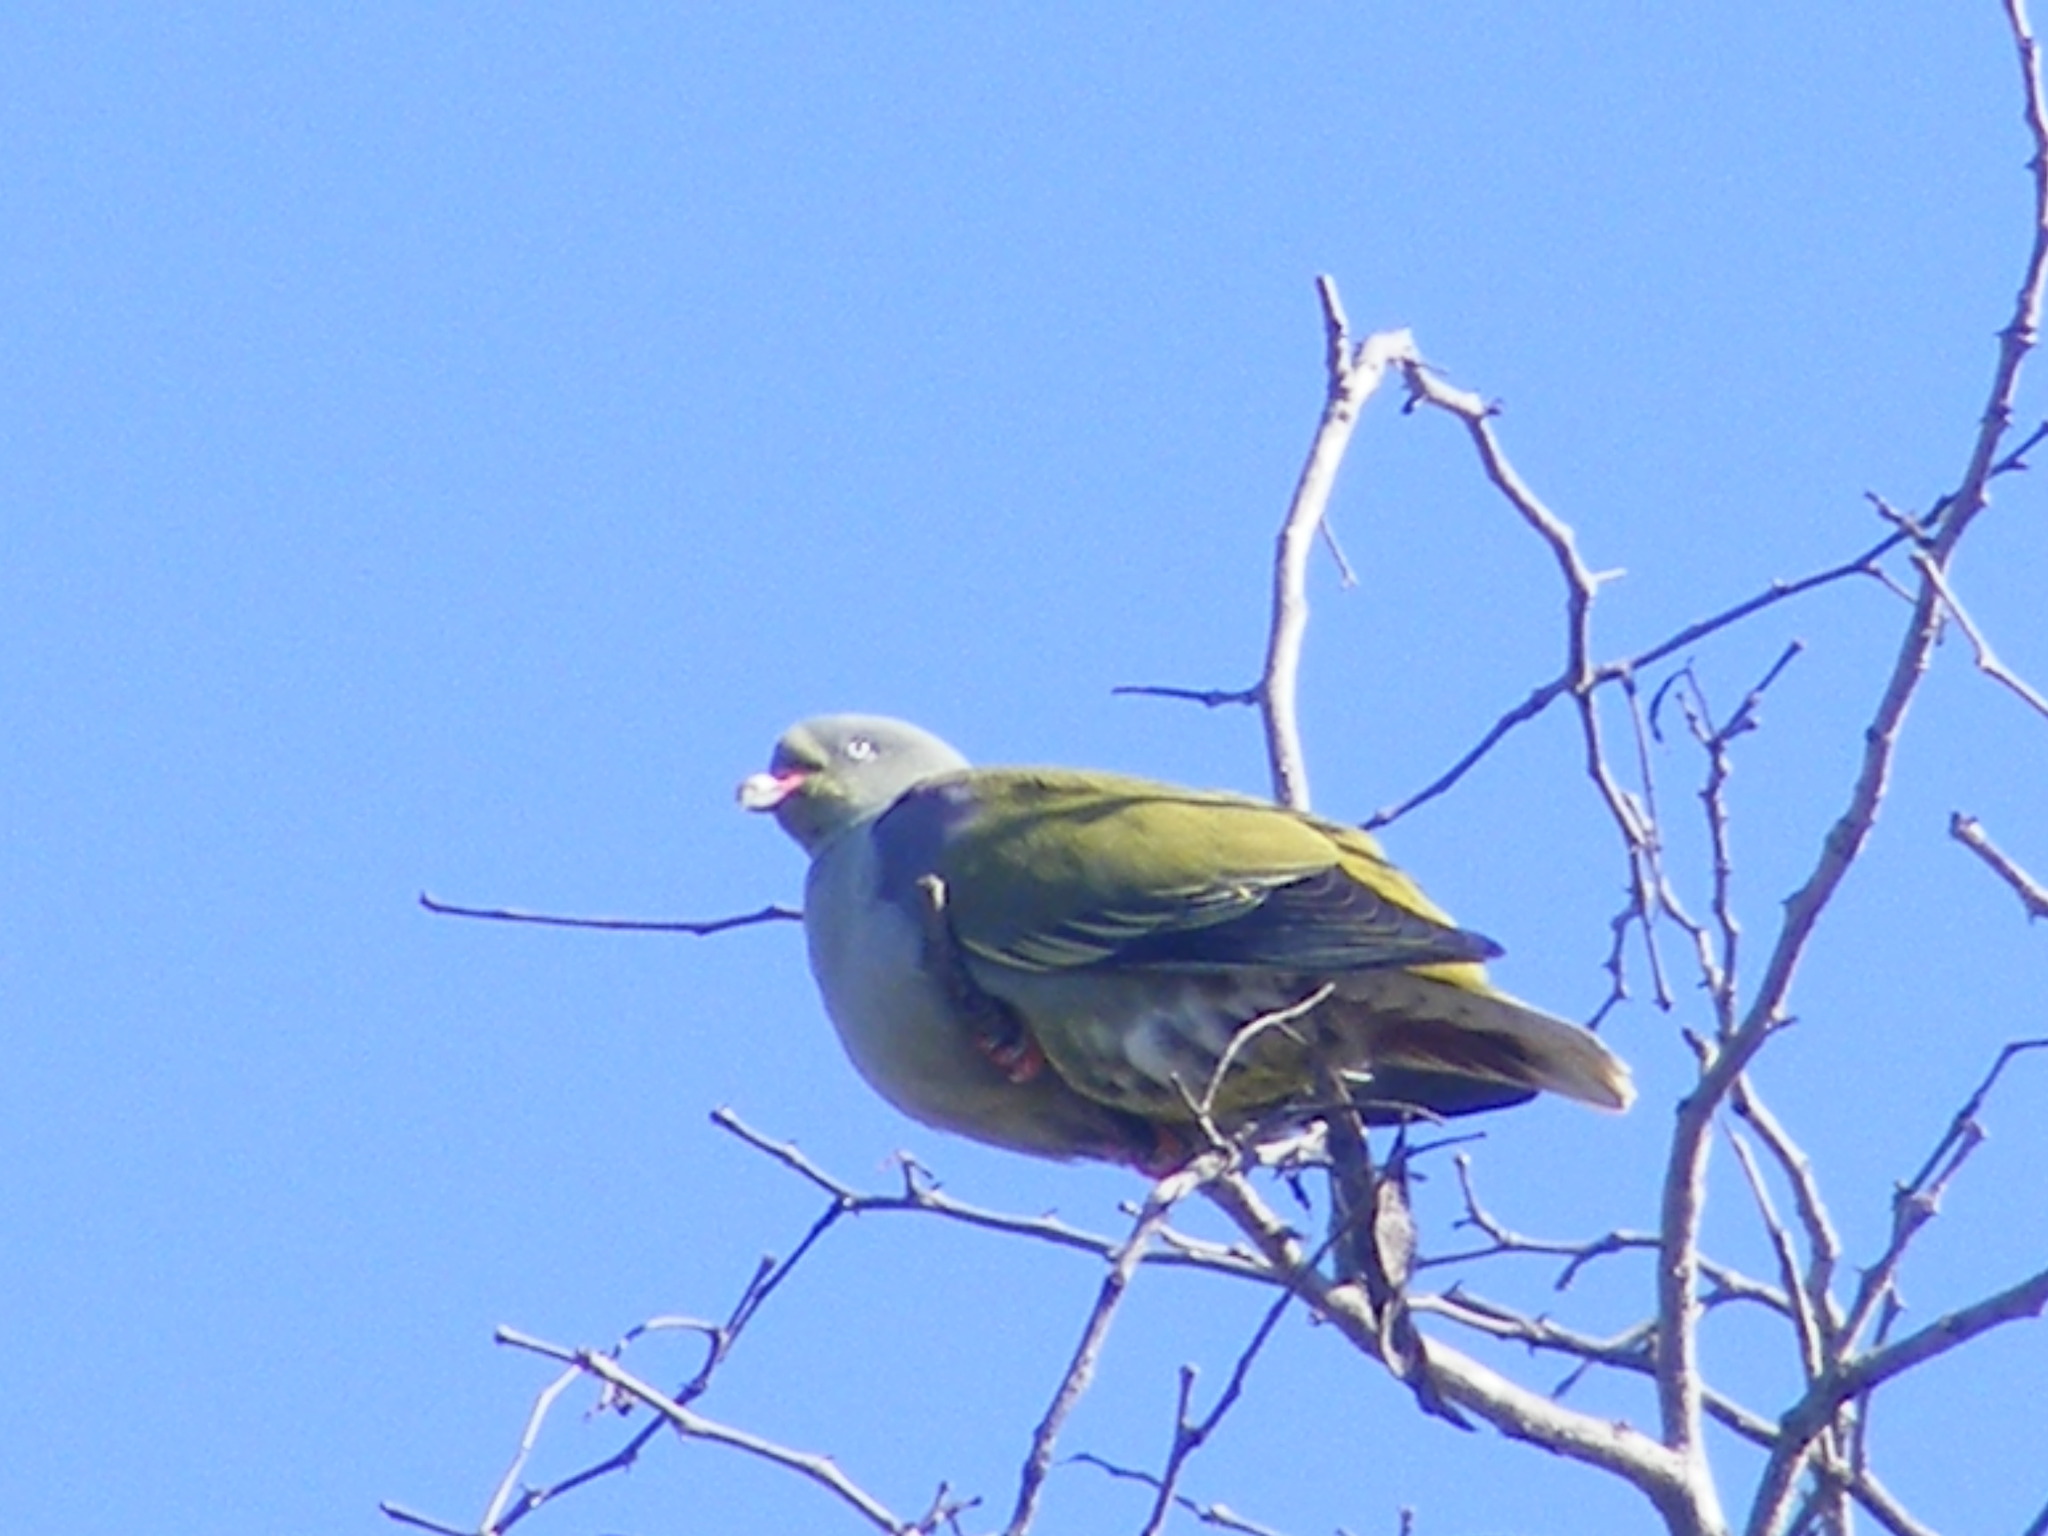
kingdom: Animalia
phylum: Chordata
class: Aves
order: Columbiformes
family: Columbidae
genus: Treron
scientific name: Treron calvus
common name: African green pigeon
